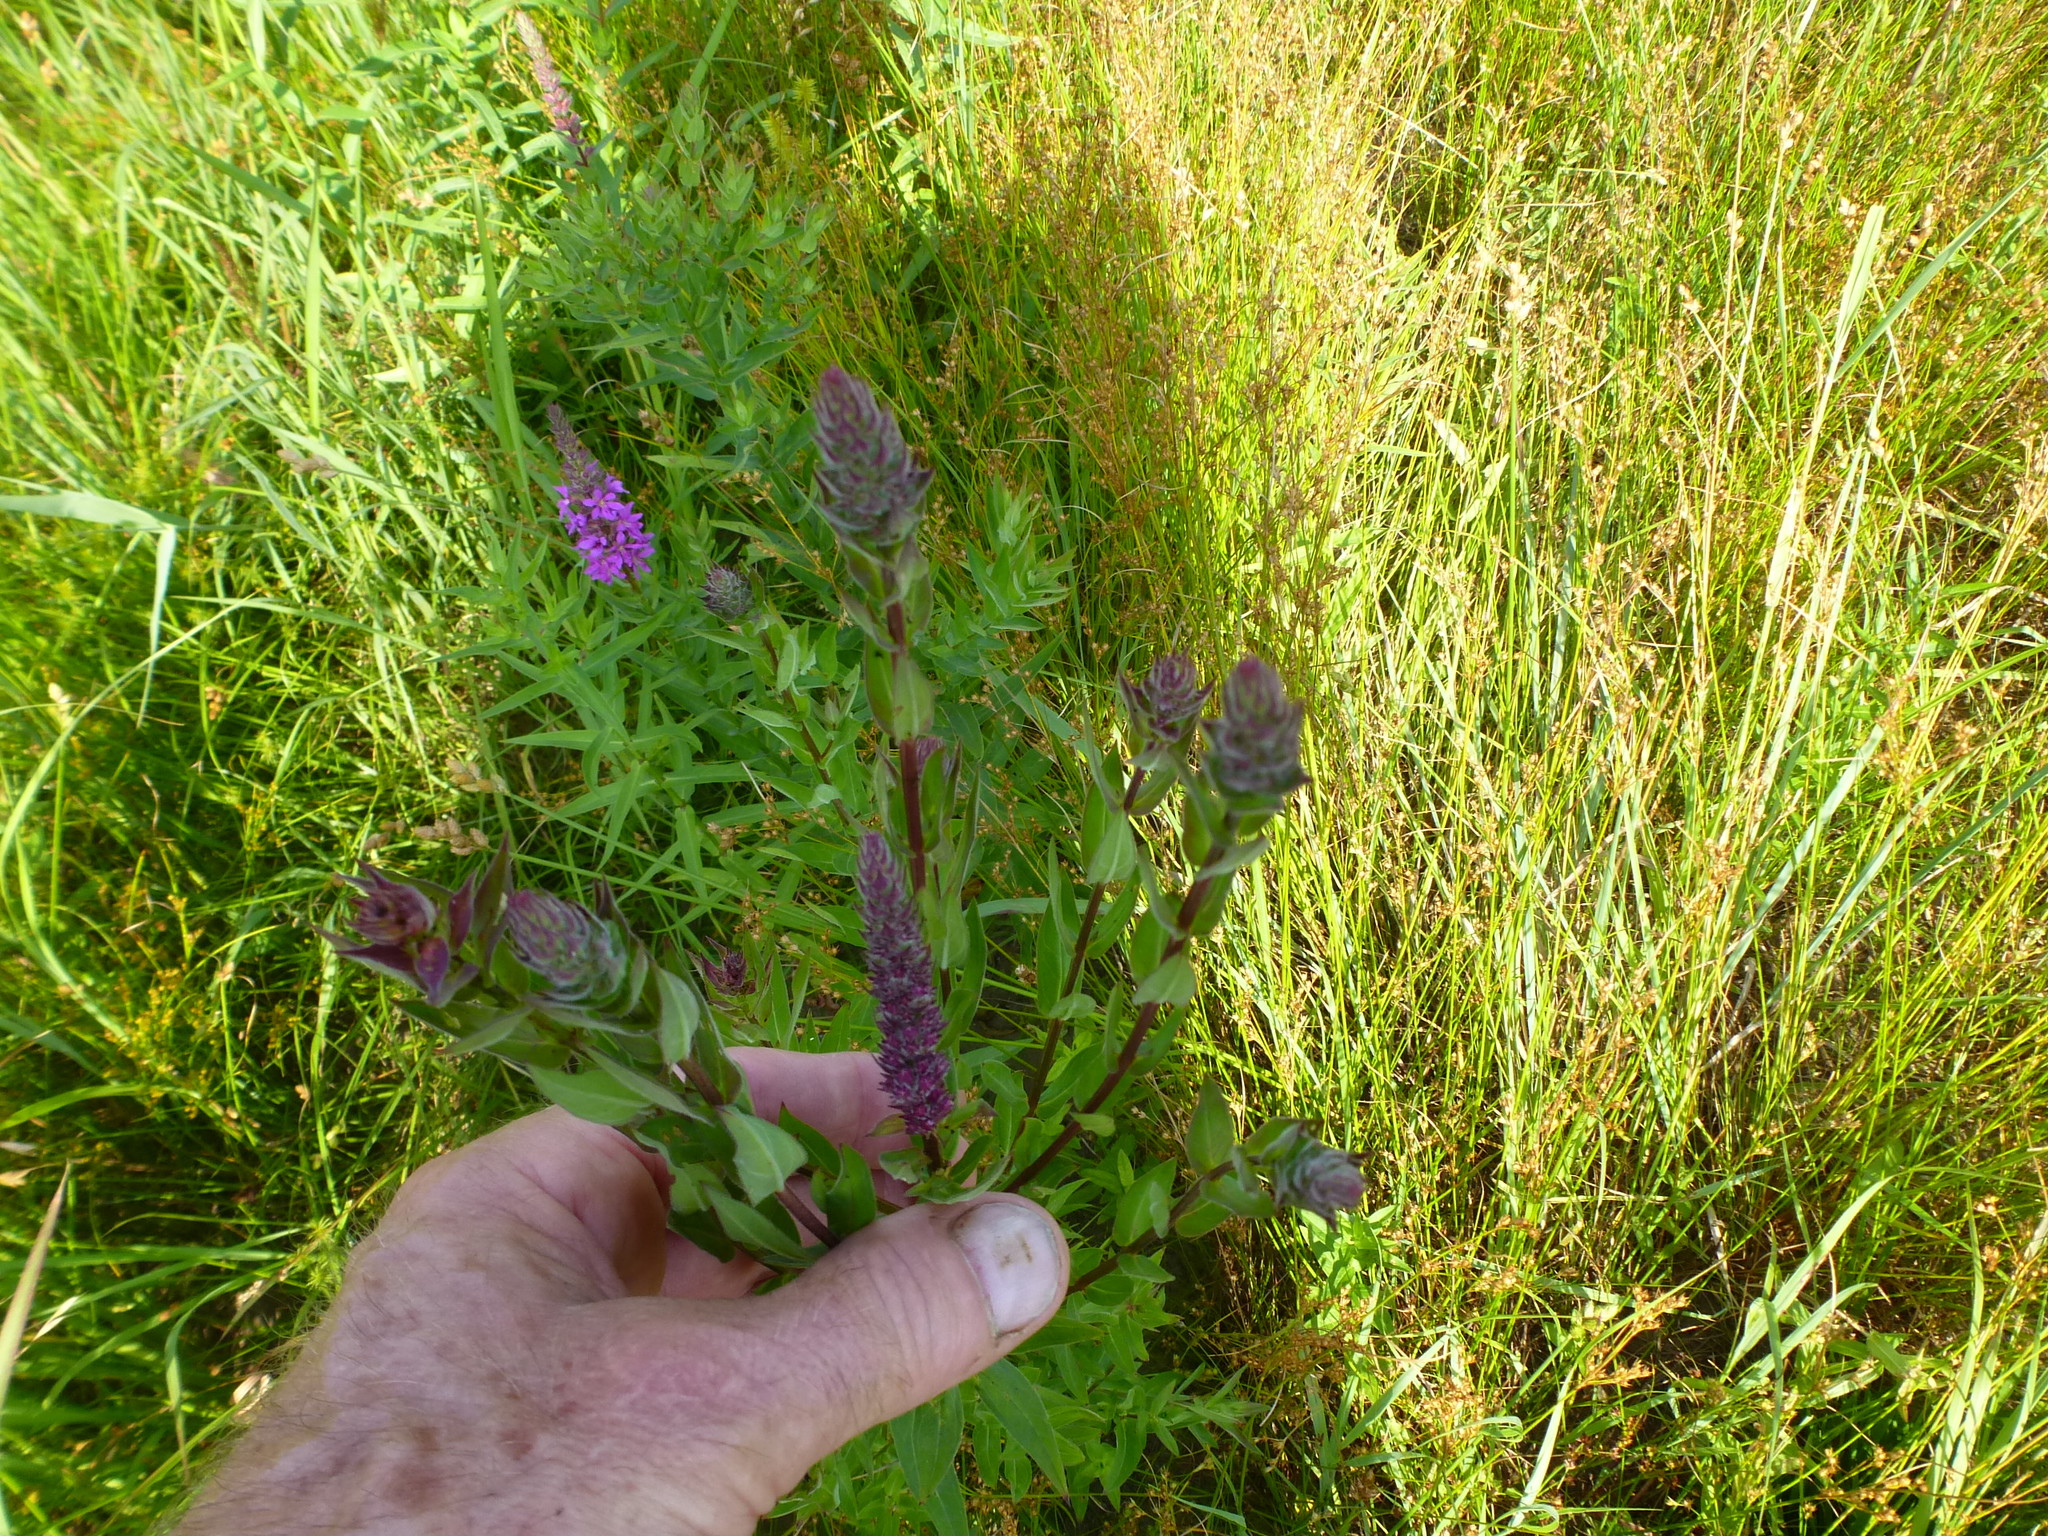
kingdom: Plantae
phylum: Tracheophyta
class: Magnoliopsida
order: Myrtales
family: Lythraceae
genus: Lythrum
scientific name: Lythrum salicaria
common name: Purple loosestrife
